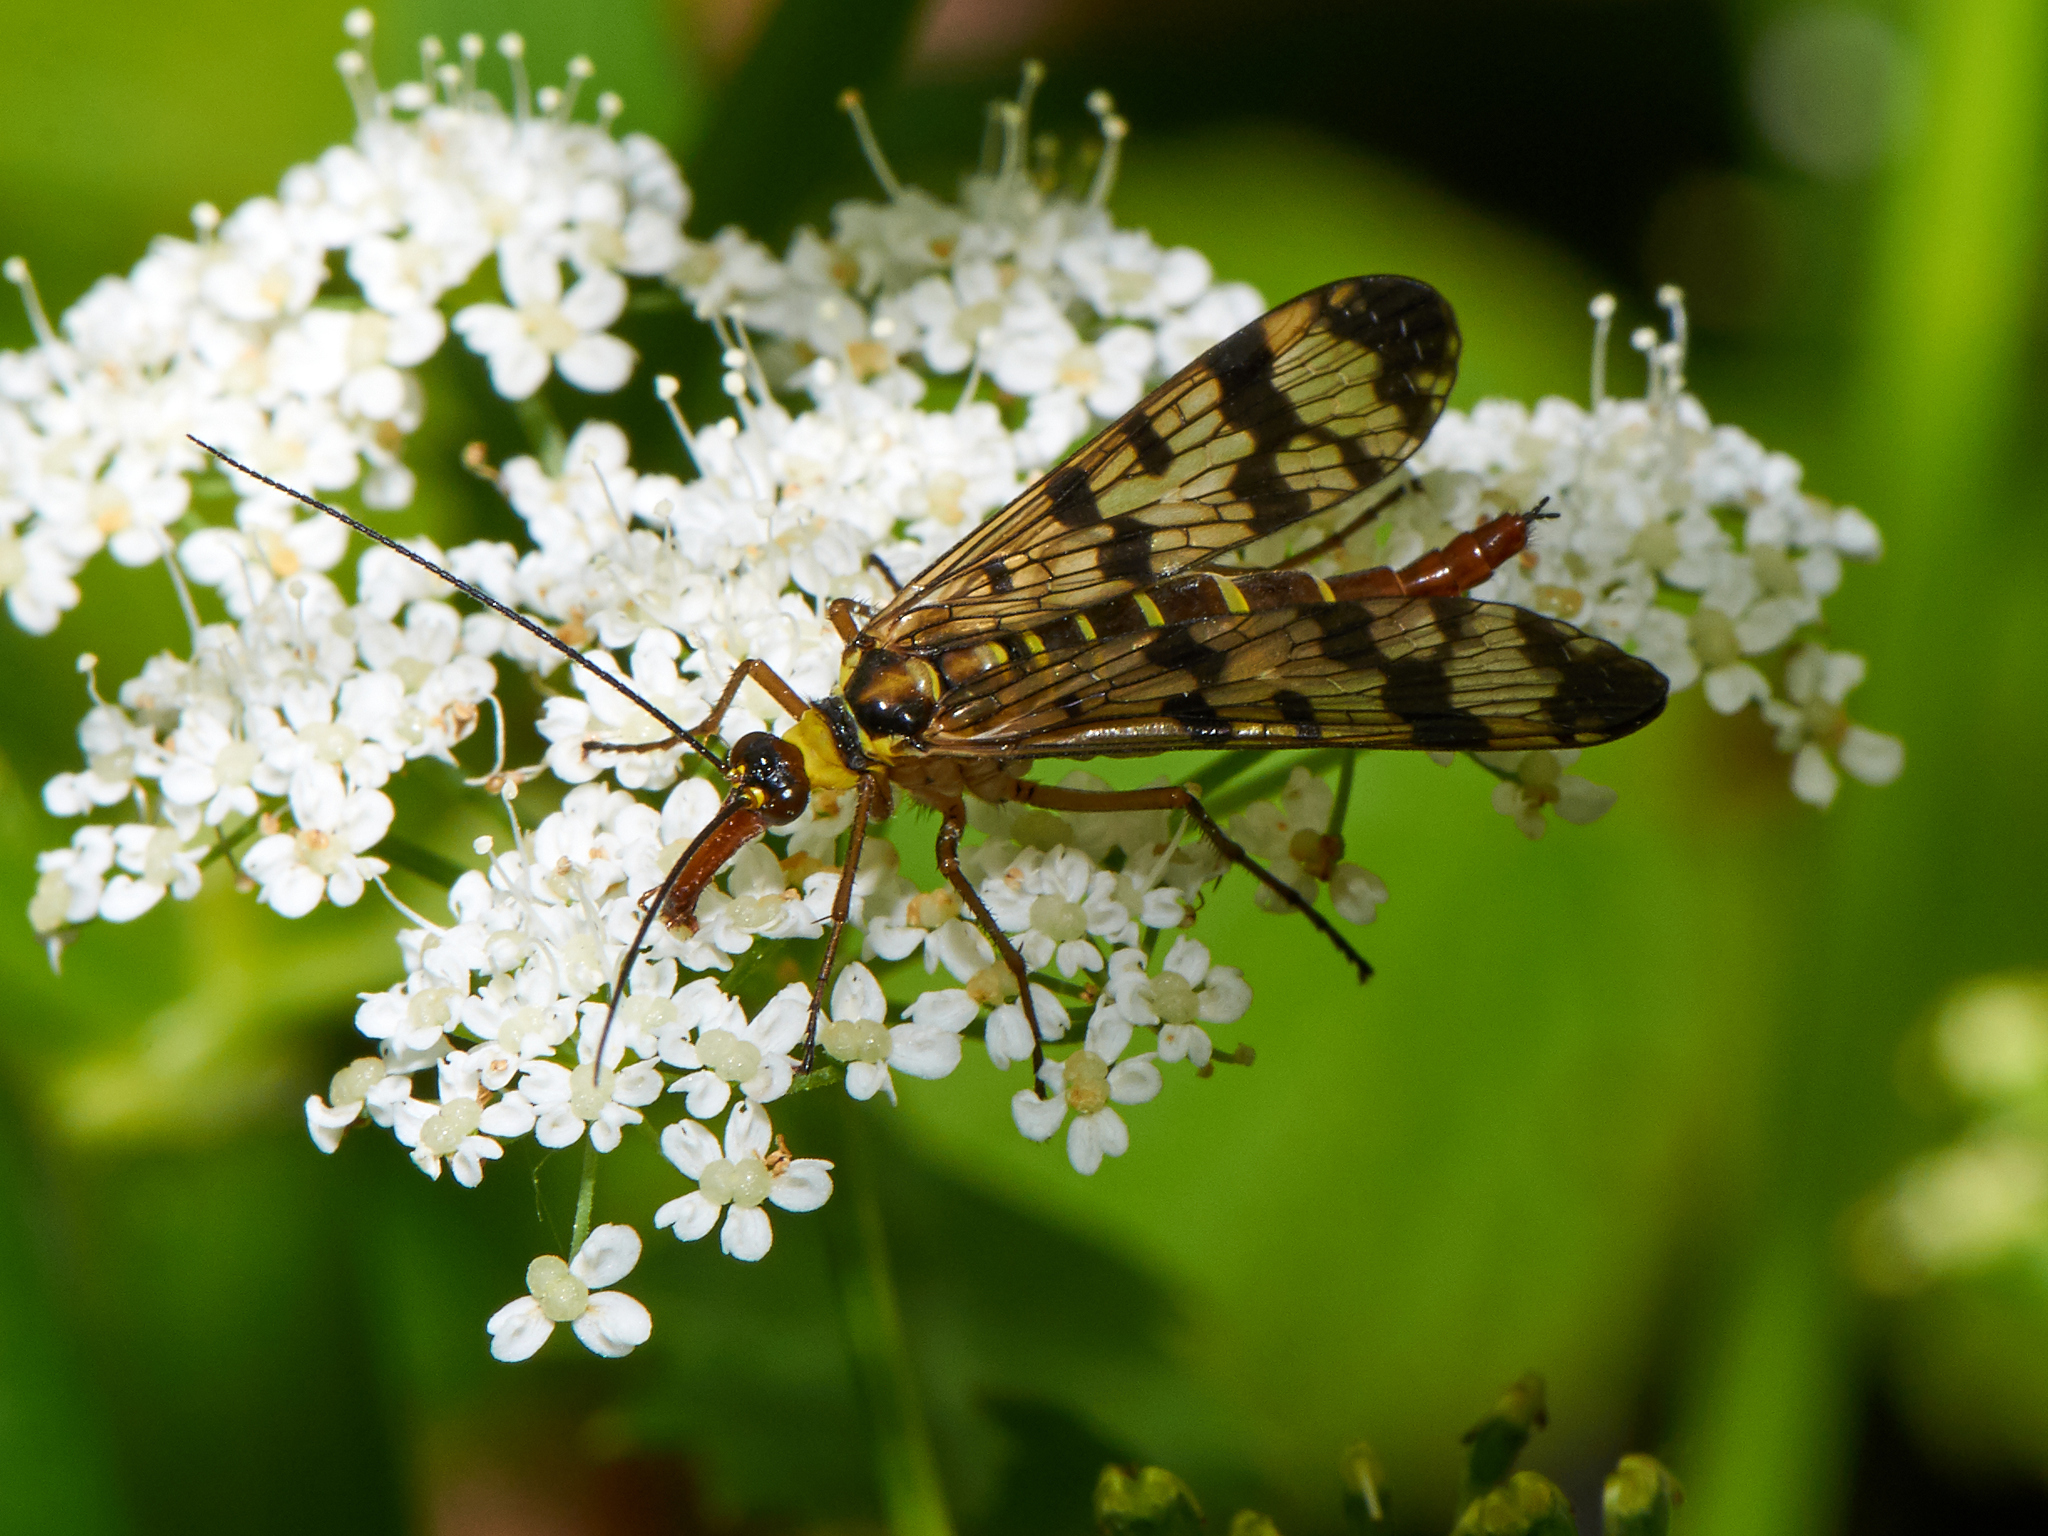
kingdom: Animalia
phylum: Arthropoda
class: Insecta
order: Mecoptera
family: Panorpidae
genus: Panorpa
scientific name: Panorpa communis
